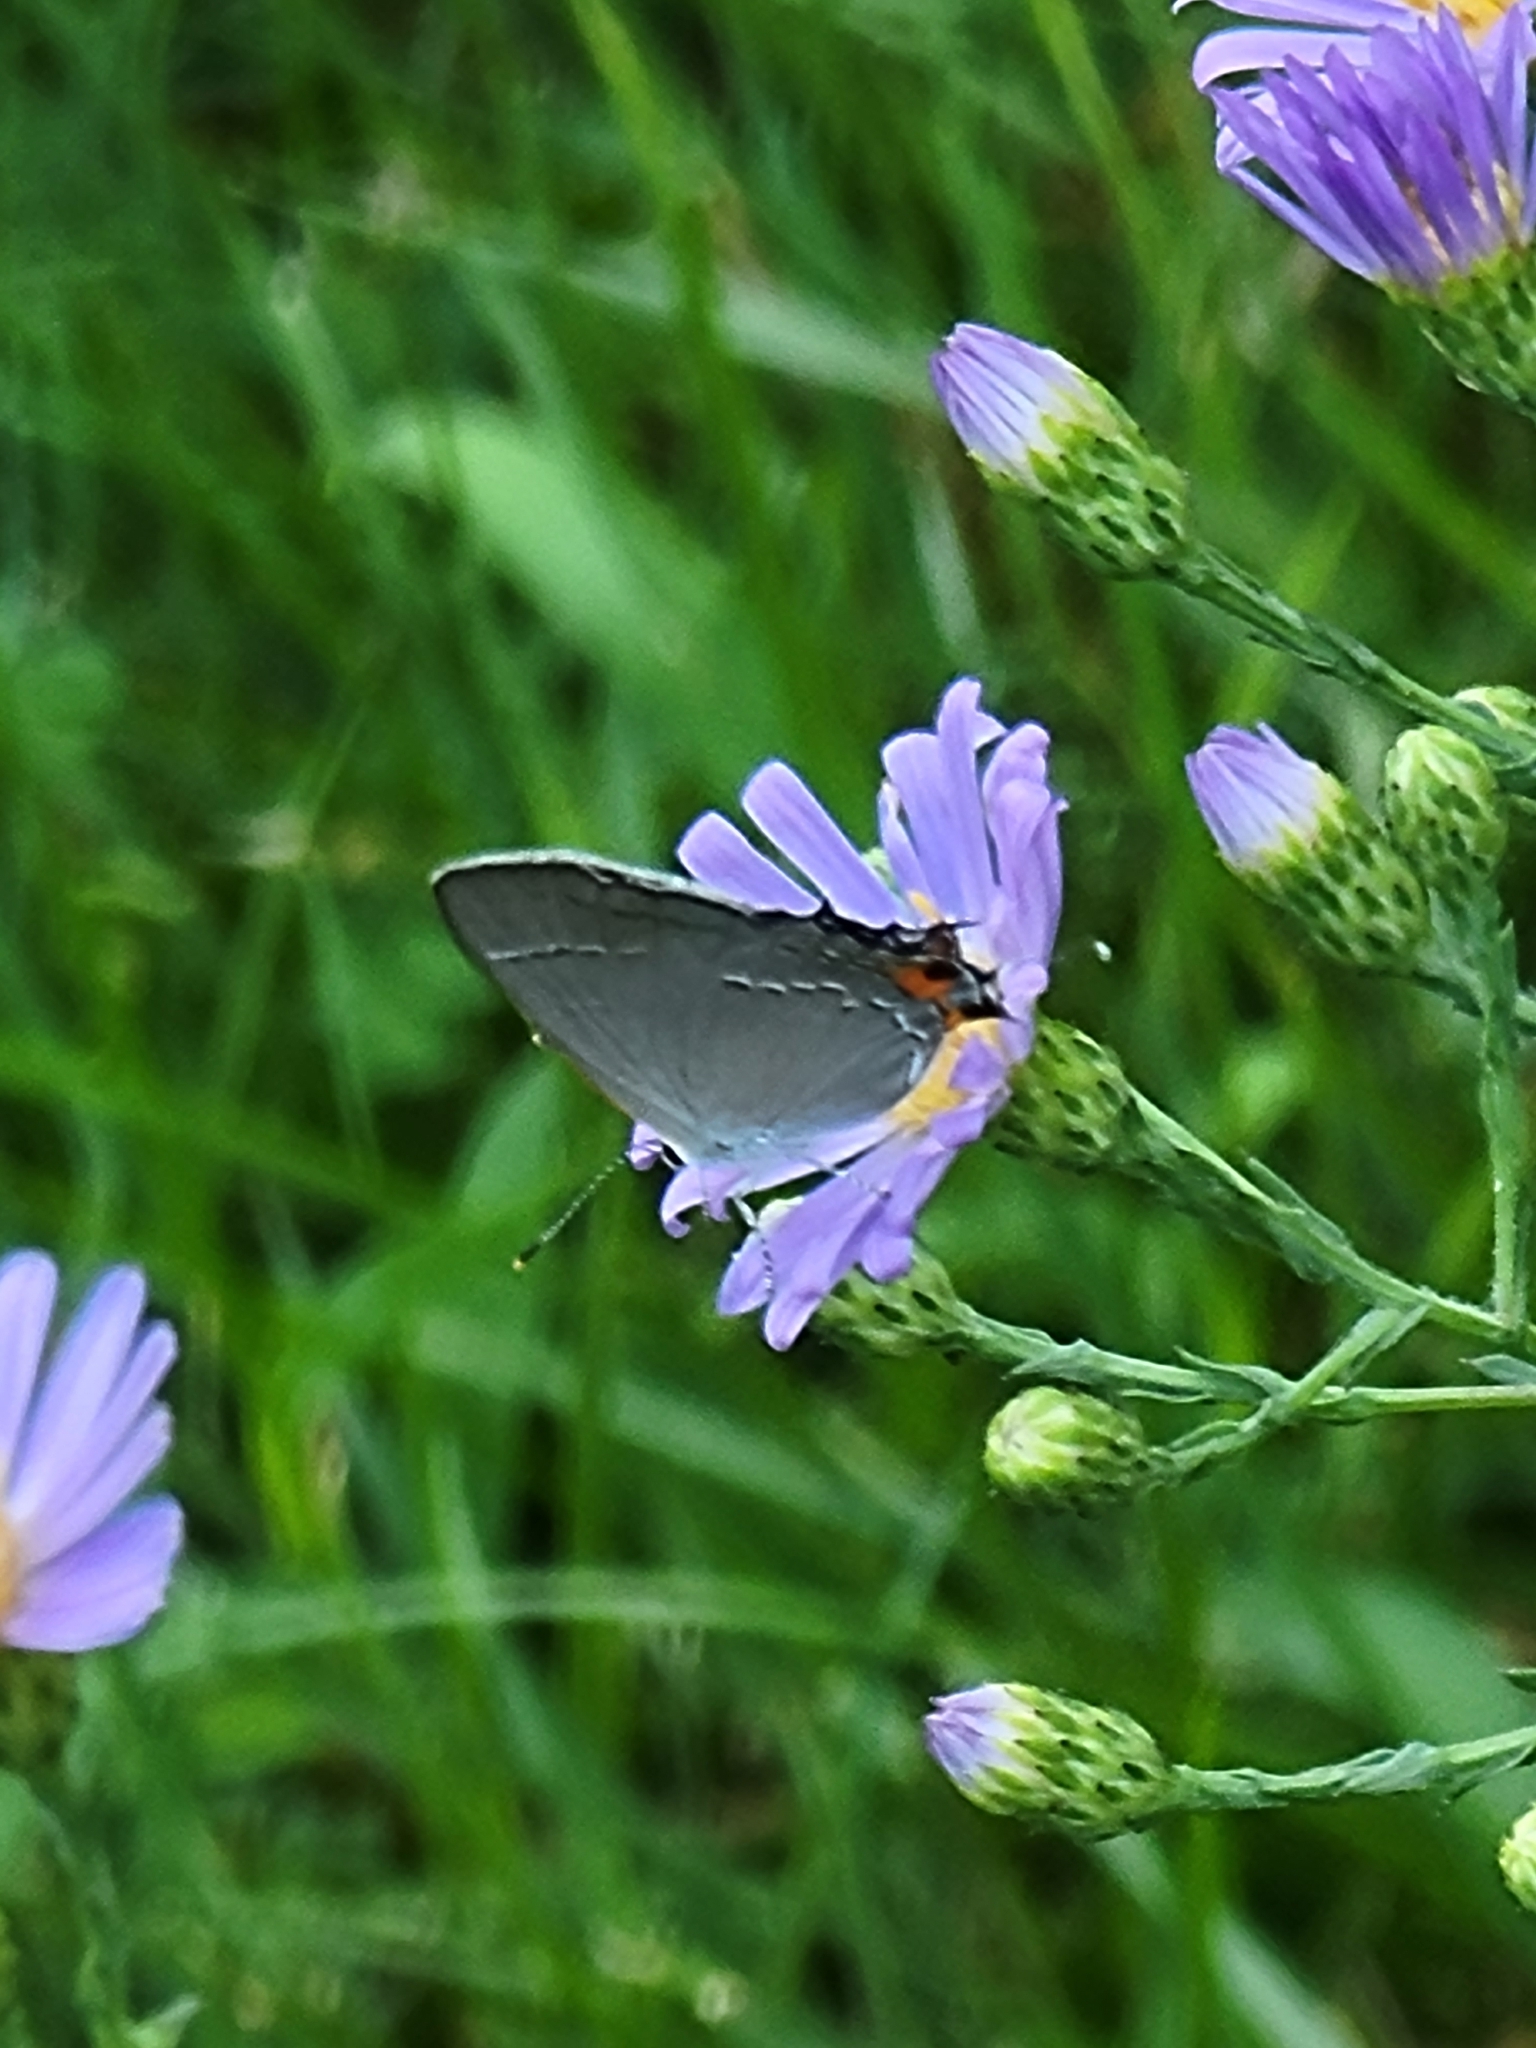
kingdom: Animalia
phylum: Arthropoda
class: Insecta
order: Lepidoptera
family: Lycaenidae
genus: Strymon
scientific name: Strymon melinus
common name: Gray hairstreak
